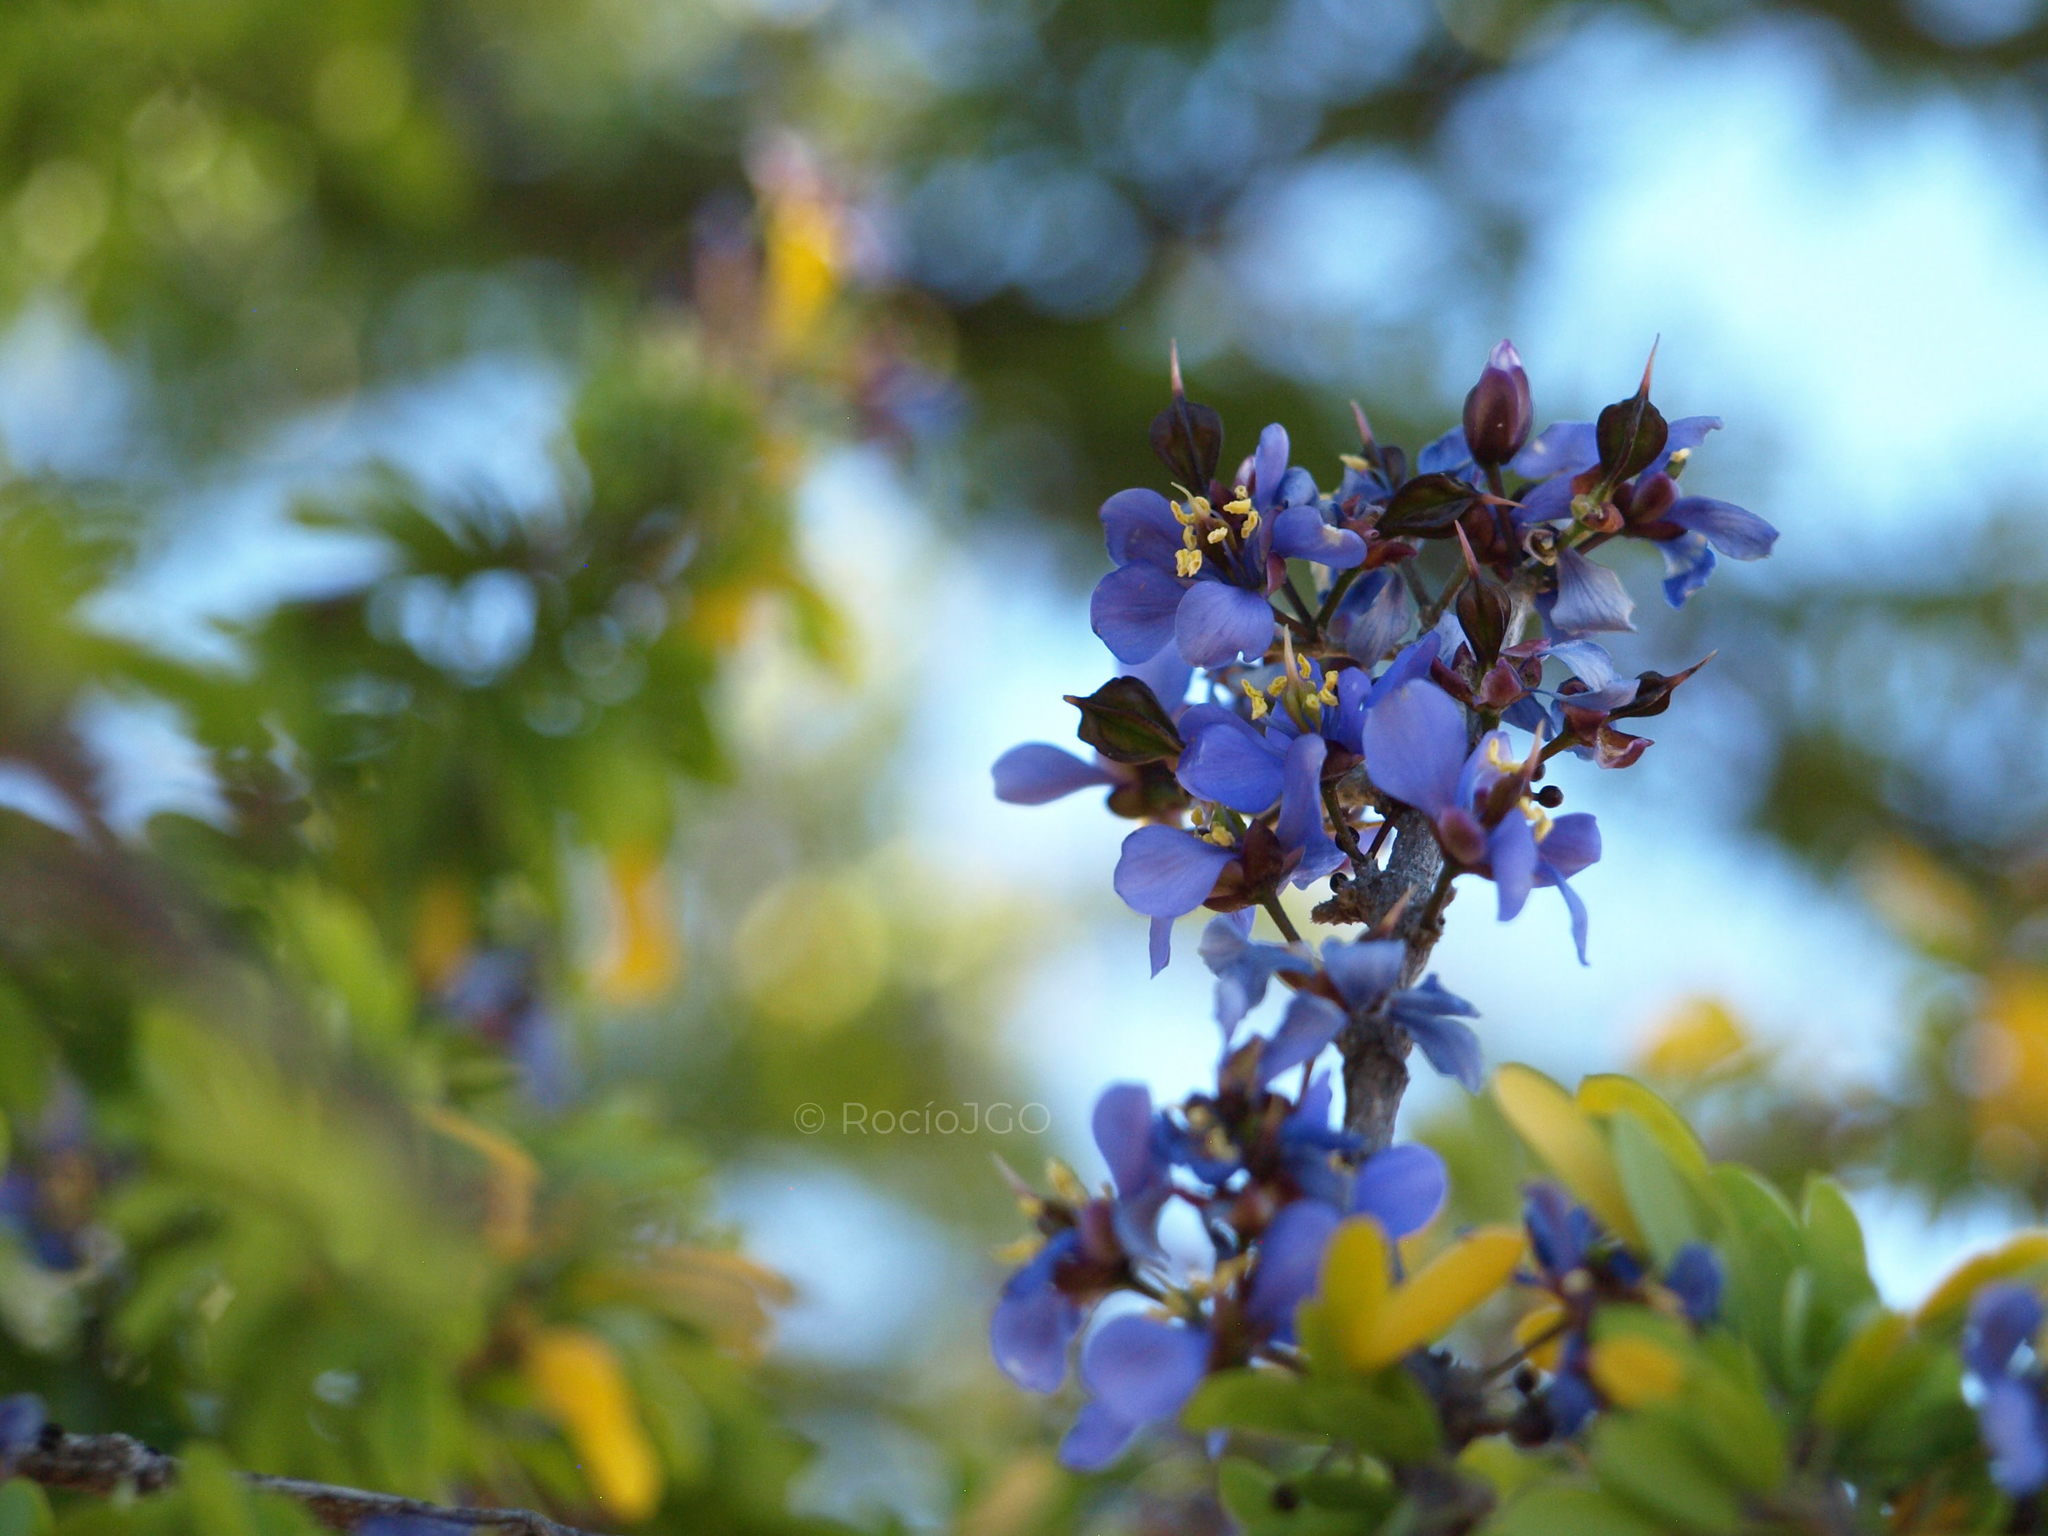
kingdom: Plantae
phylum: Tracheophyta
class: Magnoliopsida
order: Zygophyllales
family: Zygophyllaceae
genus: Guaiacum
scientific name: Guaiacum coulteri
